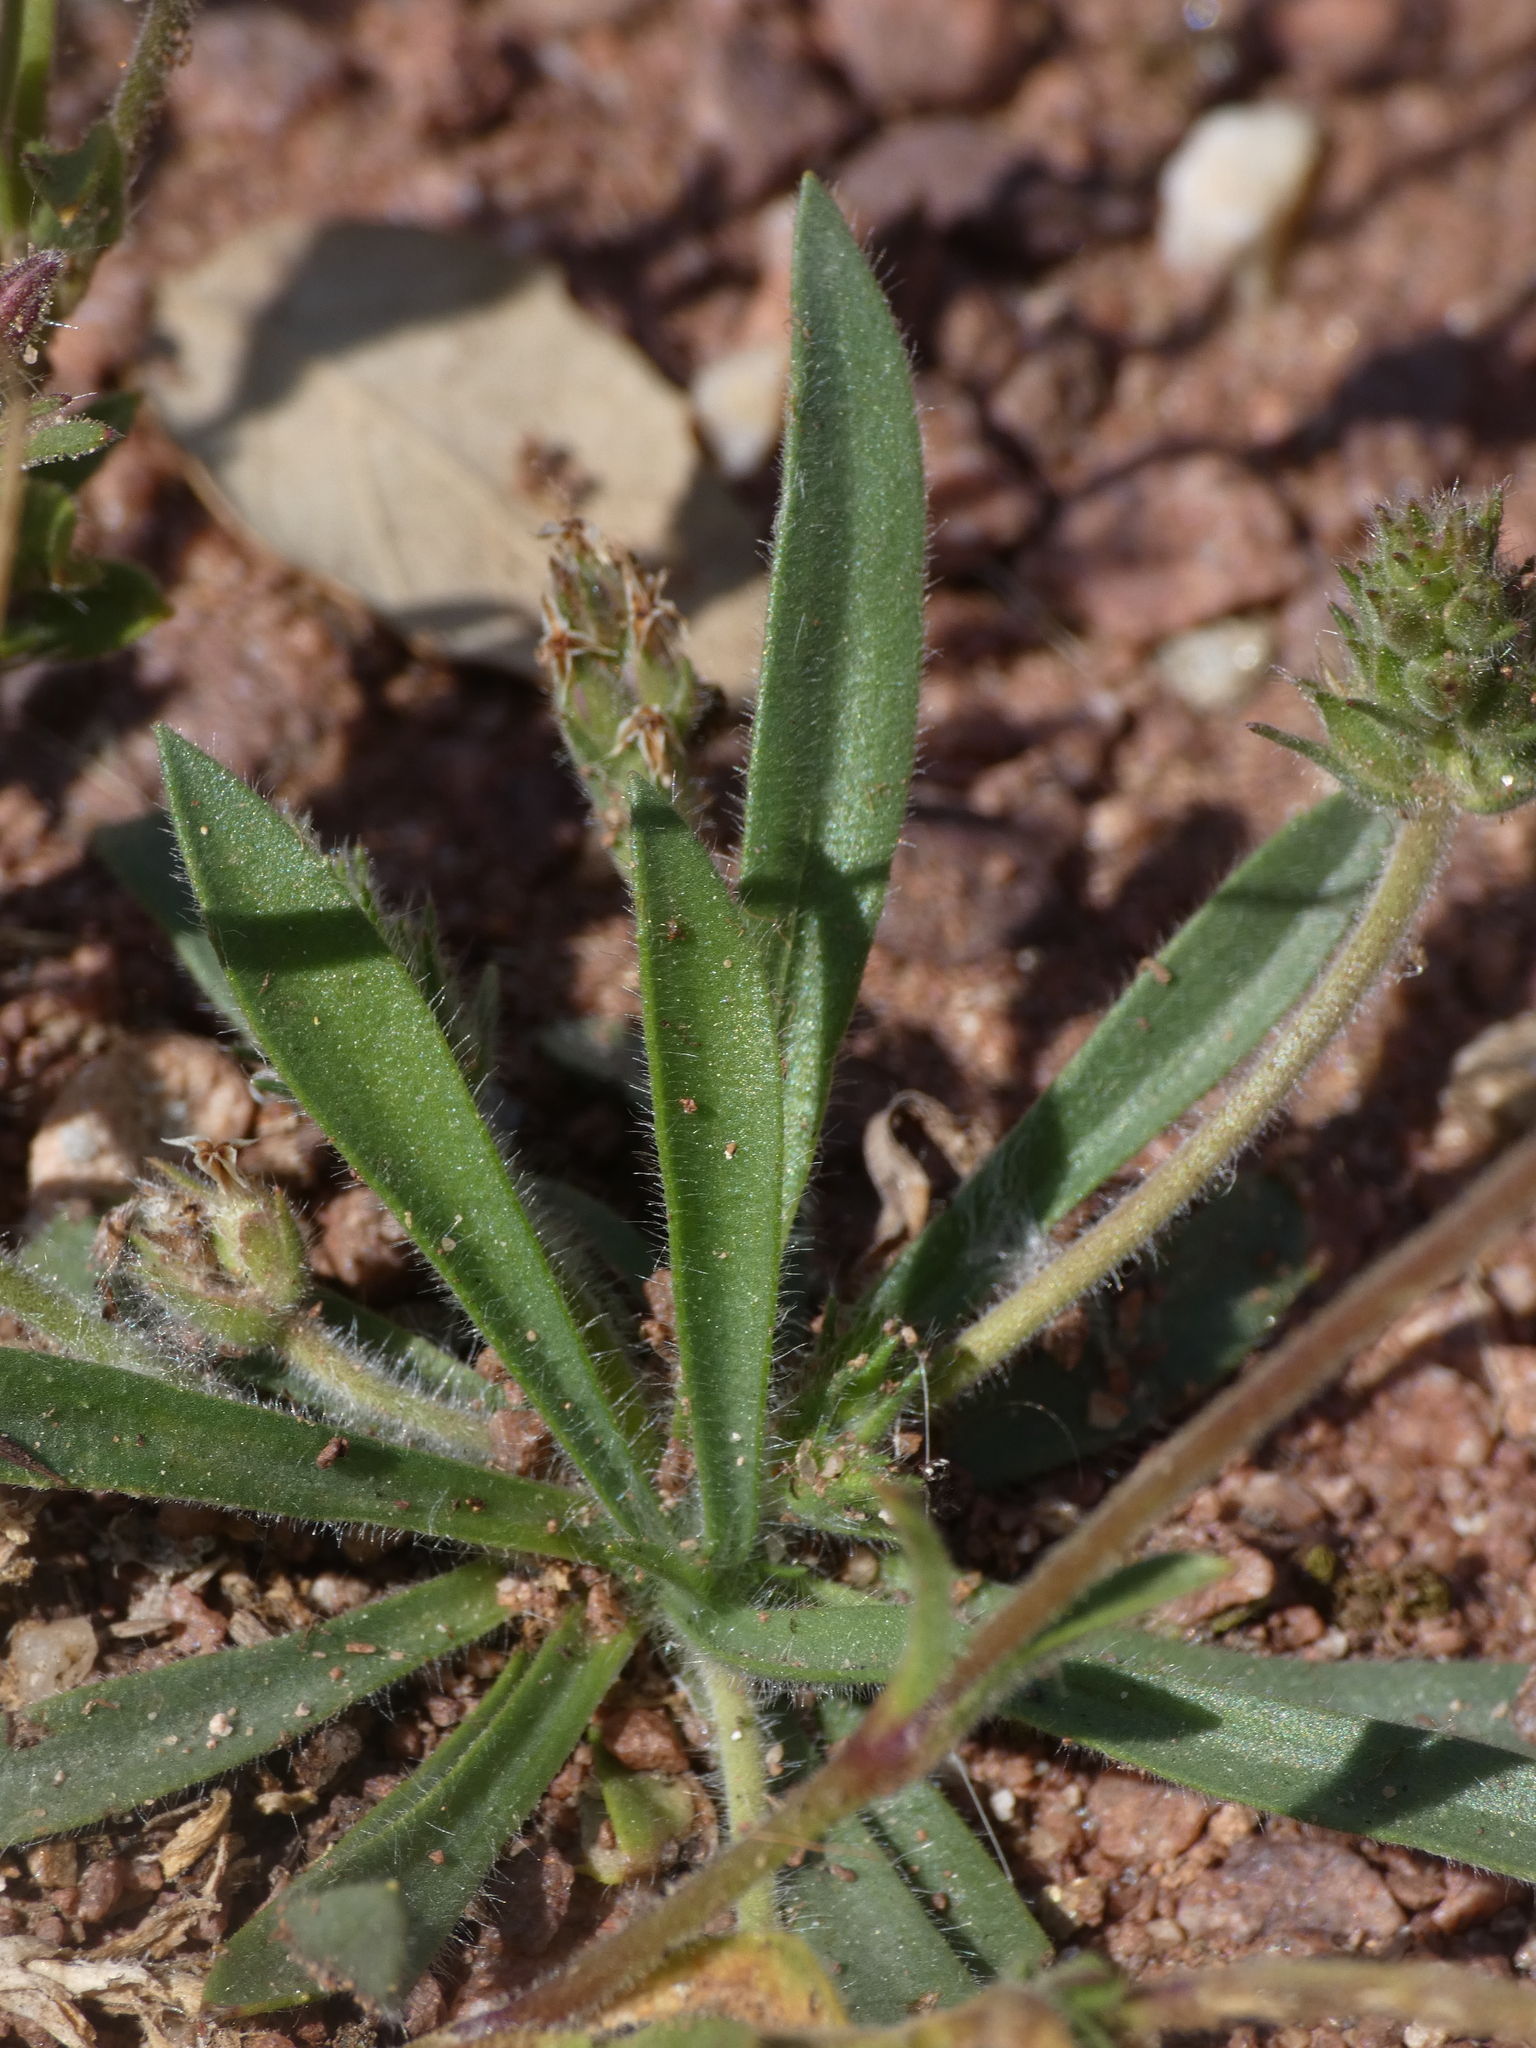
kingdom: Plantae
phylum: Tracheophyta
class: Magnoliopsida
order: Lamiales
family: Plantaginaceae
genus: Plantago
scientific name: Plantago bellardii
